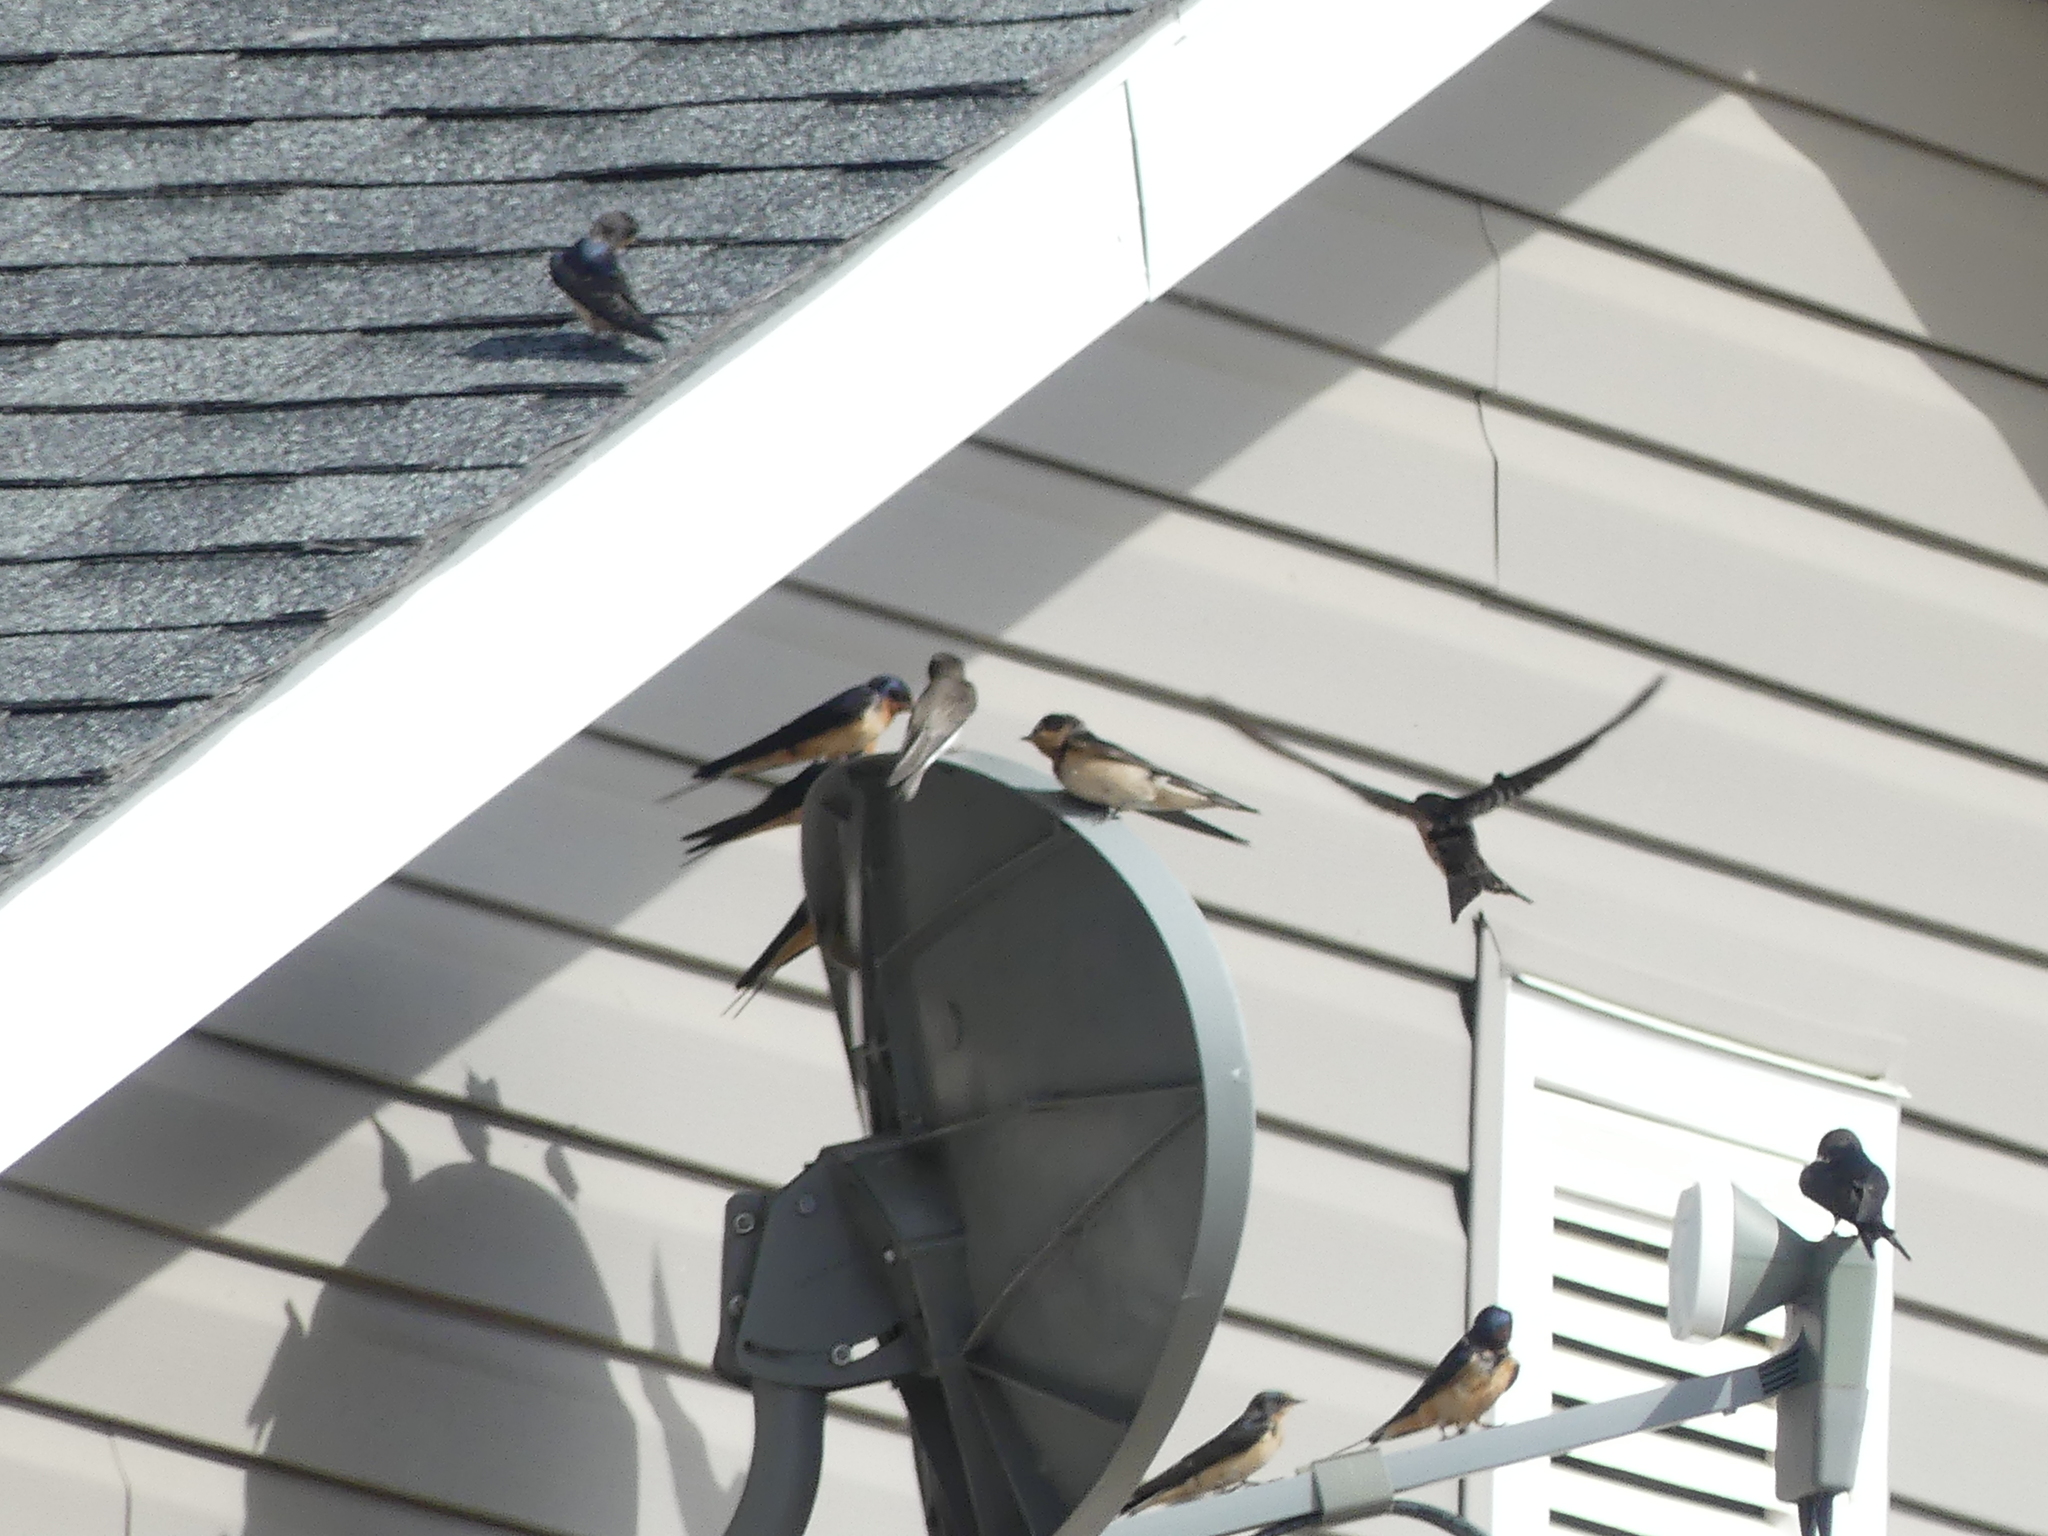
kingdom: Animalia
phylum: Chordata
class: Aves
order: Passeriformes
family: Hirundinidae
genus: Hirundo
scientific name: Hirundo rustica
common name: Barn swallow
